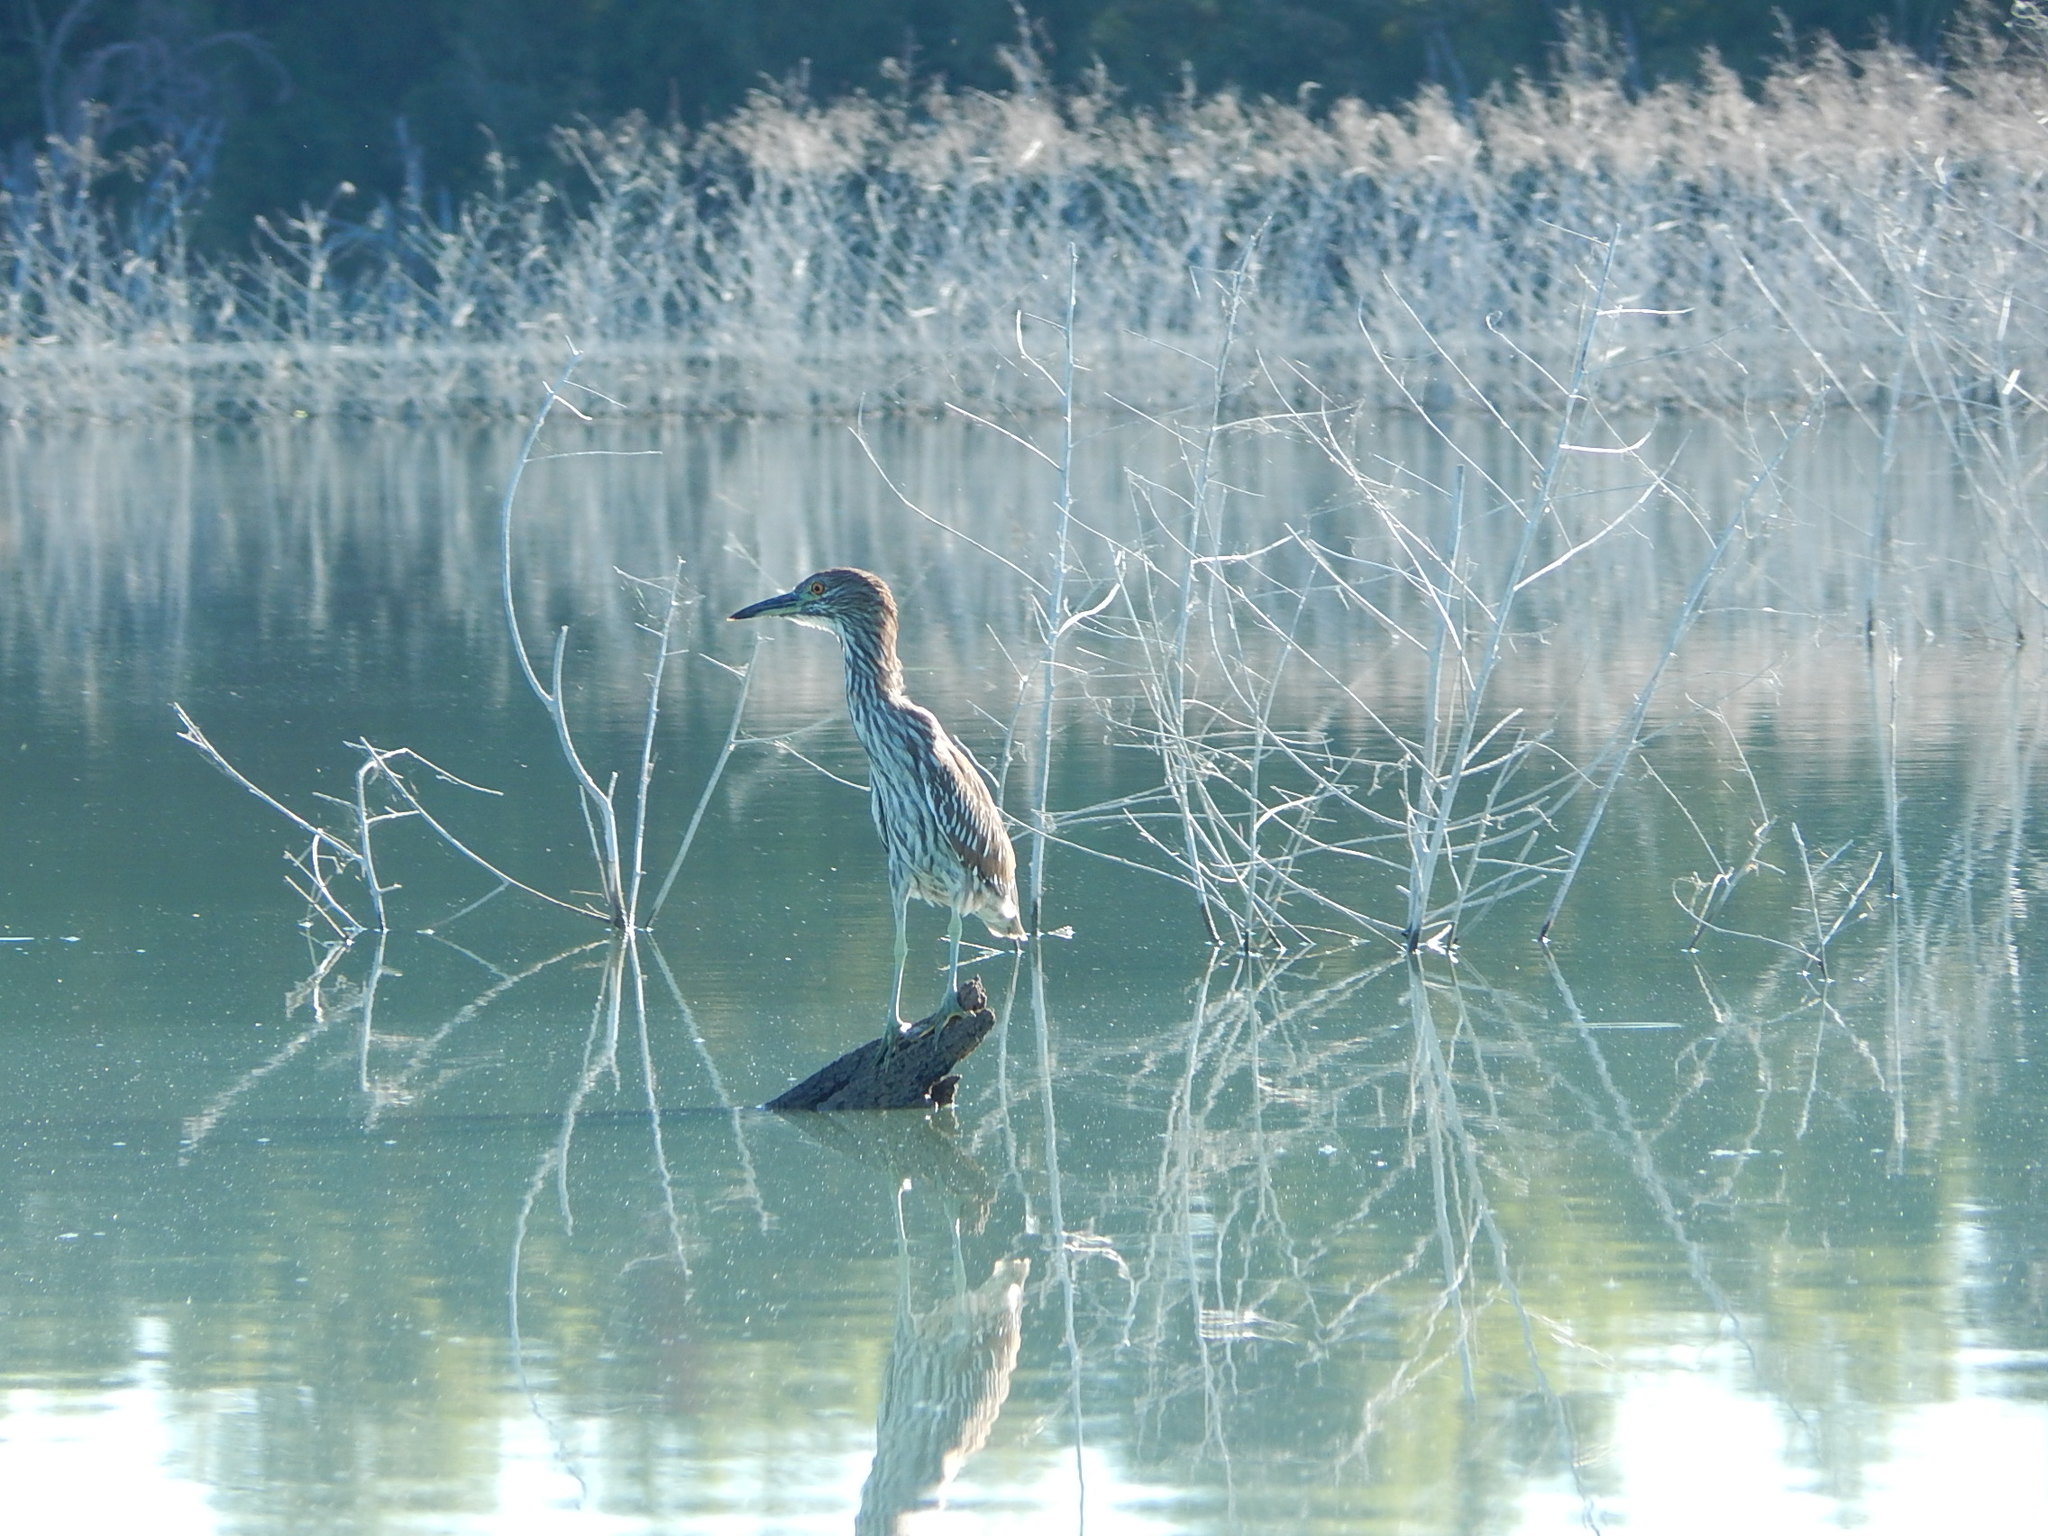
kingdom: Animalia
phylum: Chordata
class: Aves
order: Pelecaniformes
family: Ardeidae
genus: Nycticorax
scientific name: Nycticorax nycticorax
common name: Black-crowned night heron
